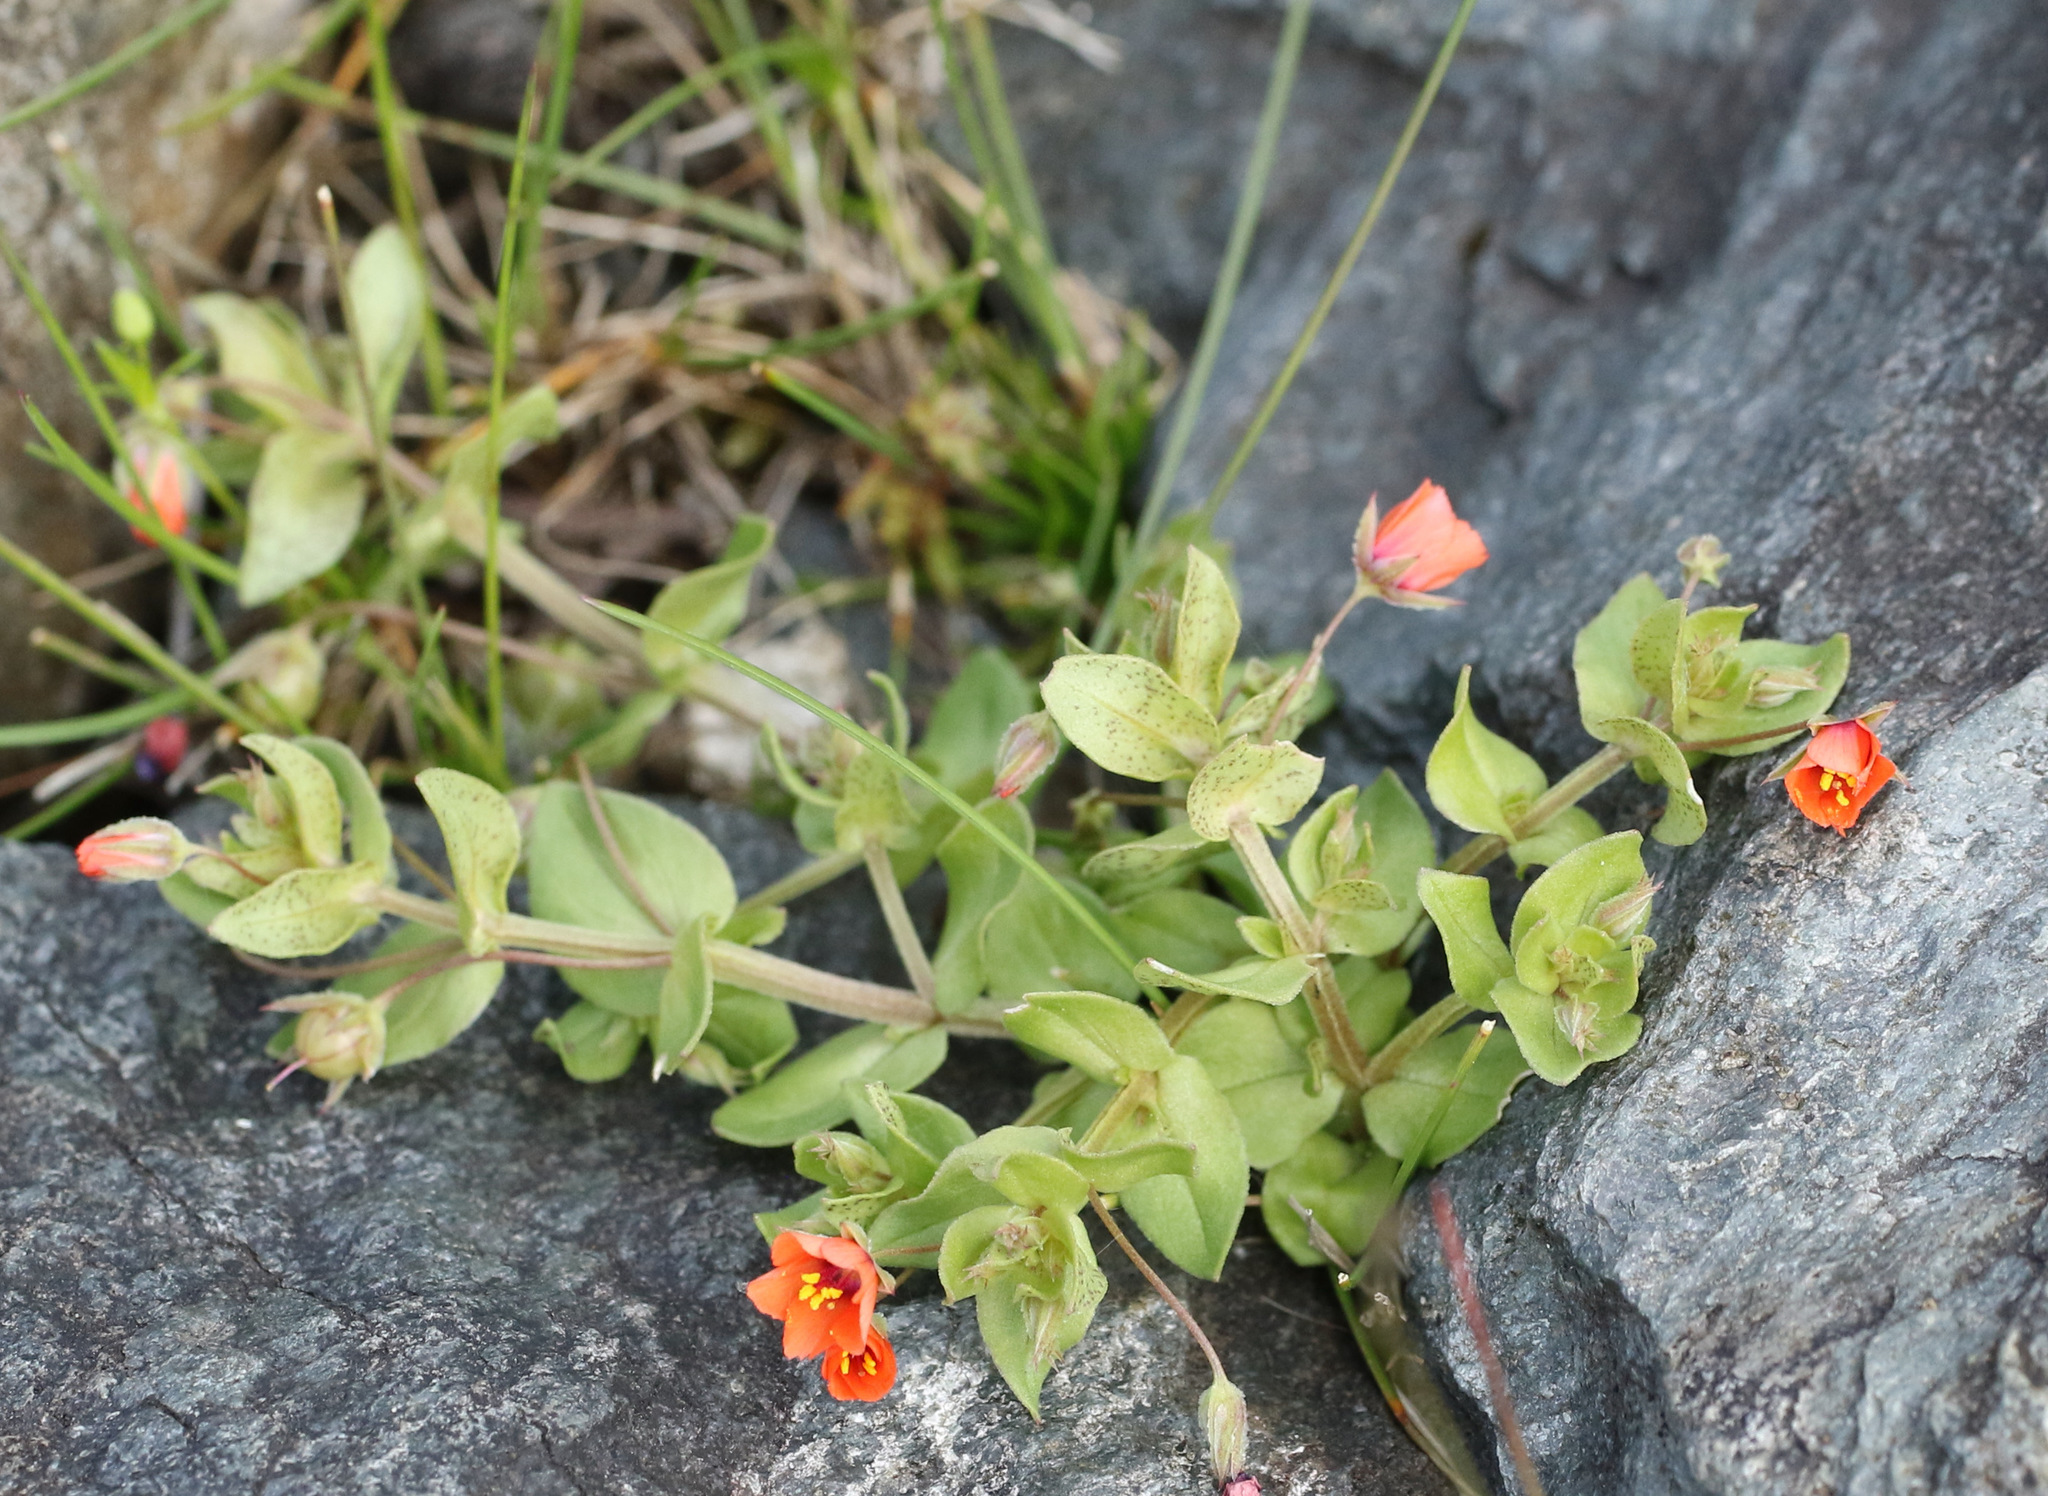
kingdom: Plantae
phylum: Tracheophyta
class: Magnoliopsida
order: Ericales
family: Primulaceae
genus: Lysimachia
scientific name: Lysimachia arvensis
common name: Scarlet pimpernel
